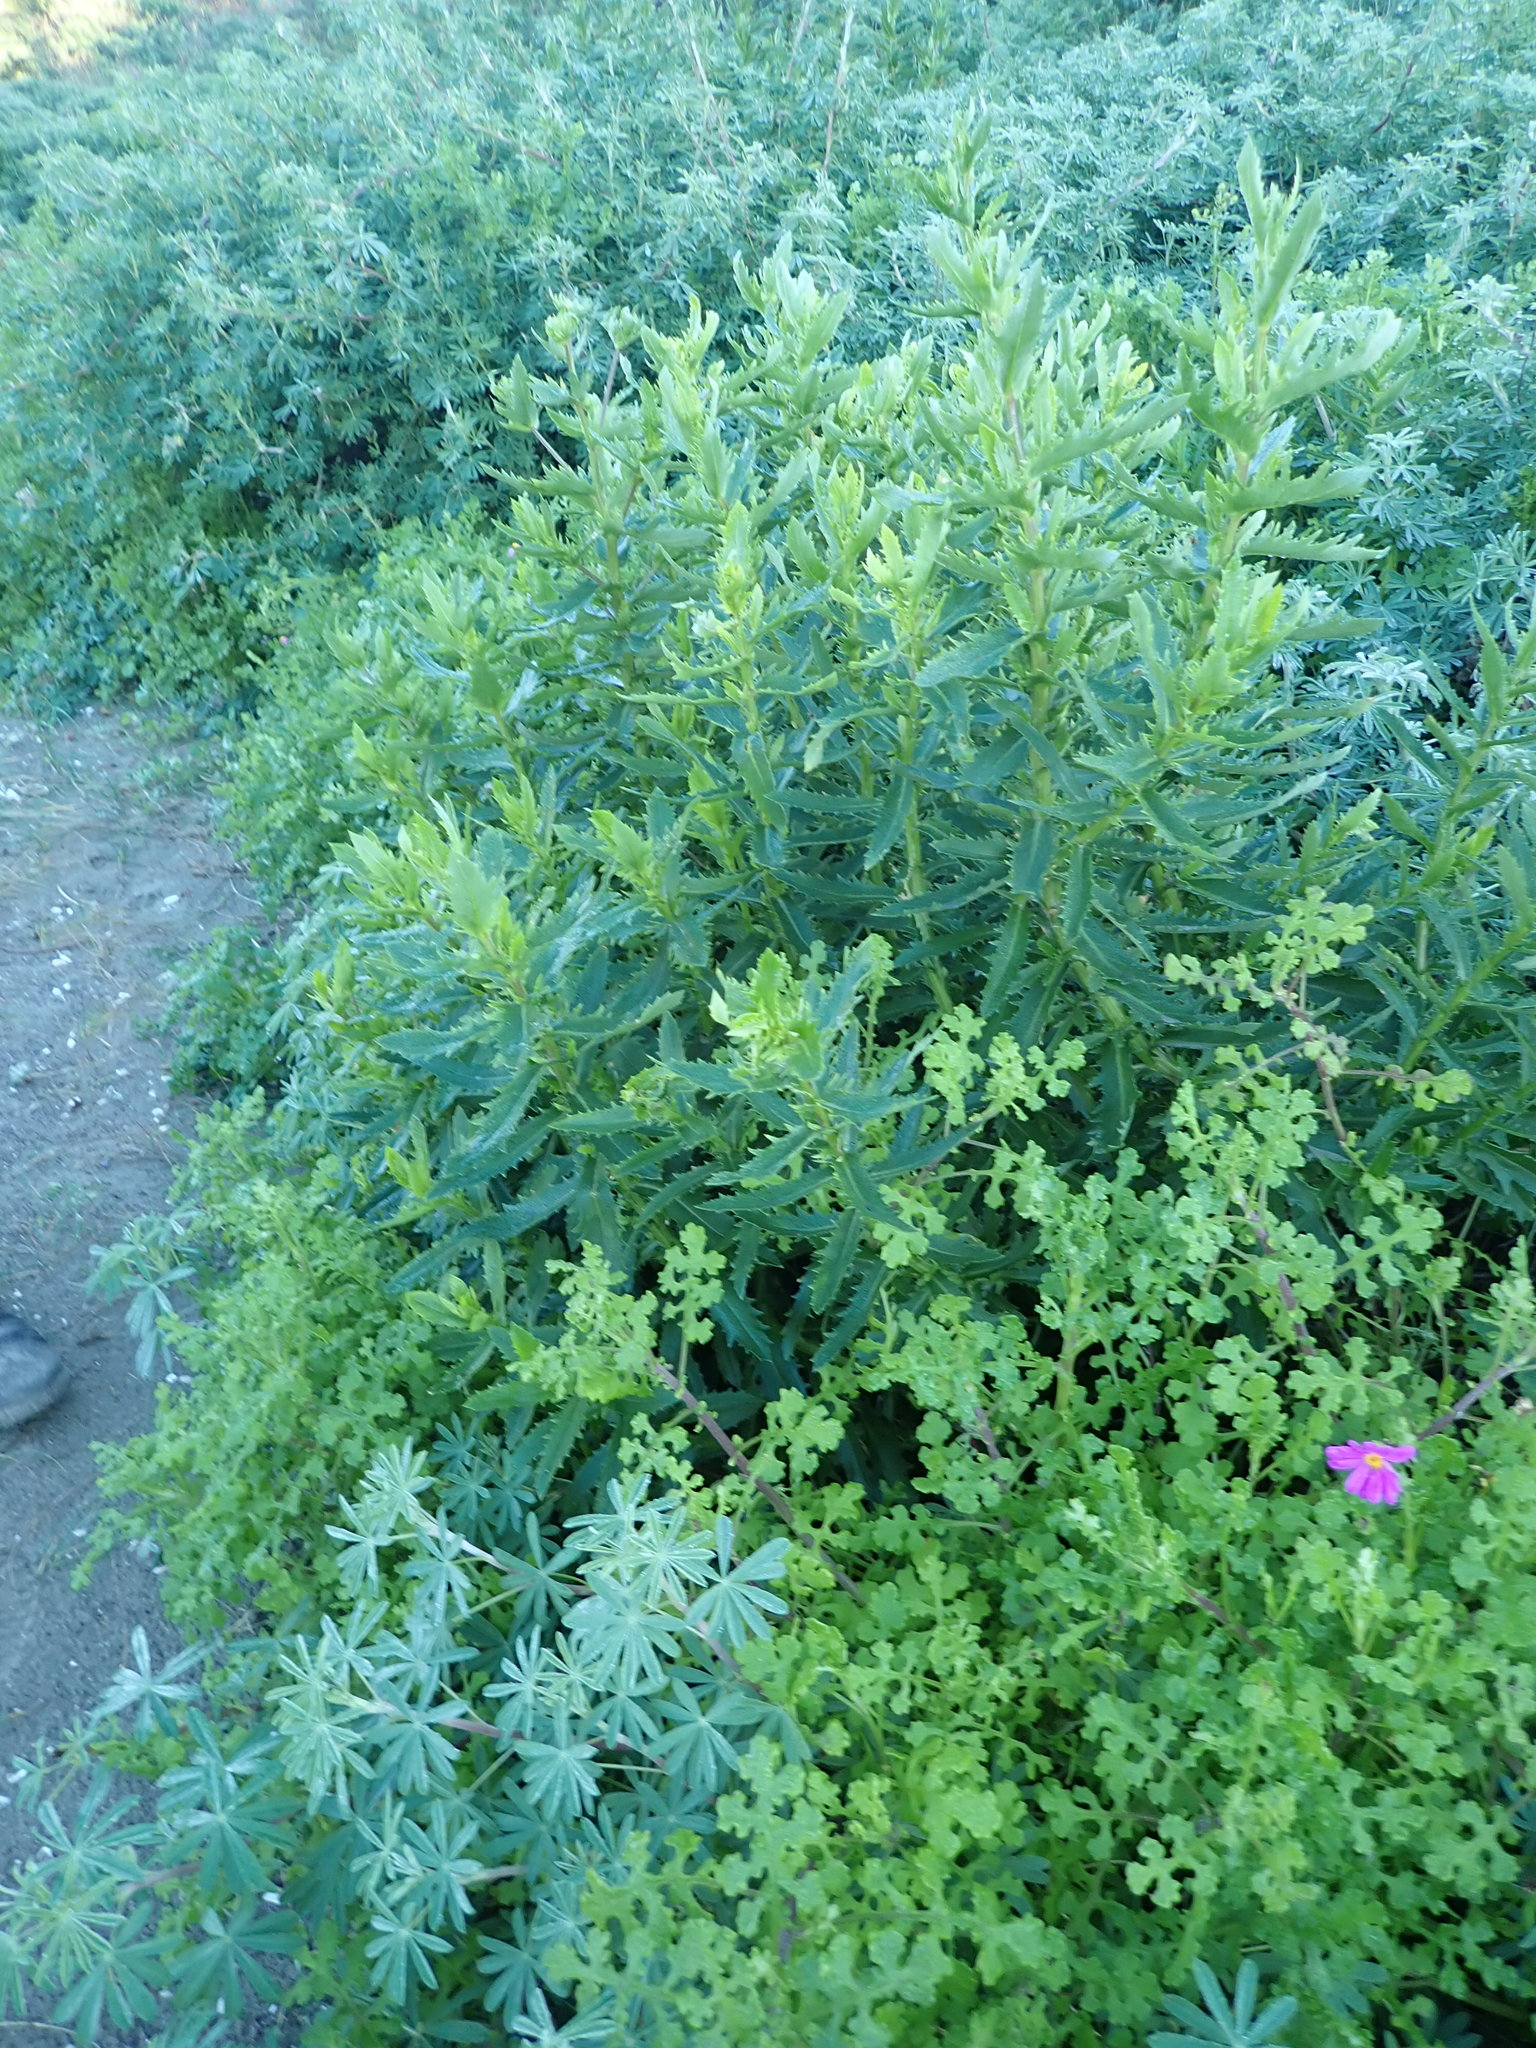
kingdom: Plantae
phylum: Tracheophyta
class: Magnoliopsida
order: Asterales
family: Asteraceae
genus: Senecio
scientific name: Senecio elegans
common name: Purple groundsel
